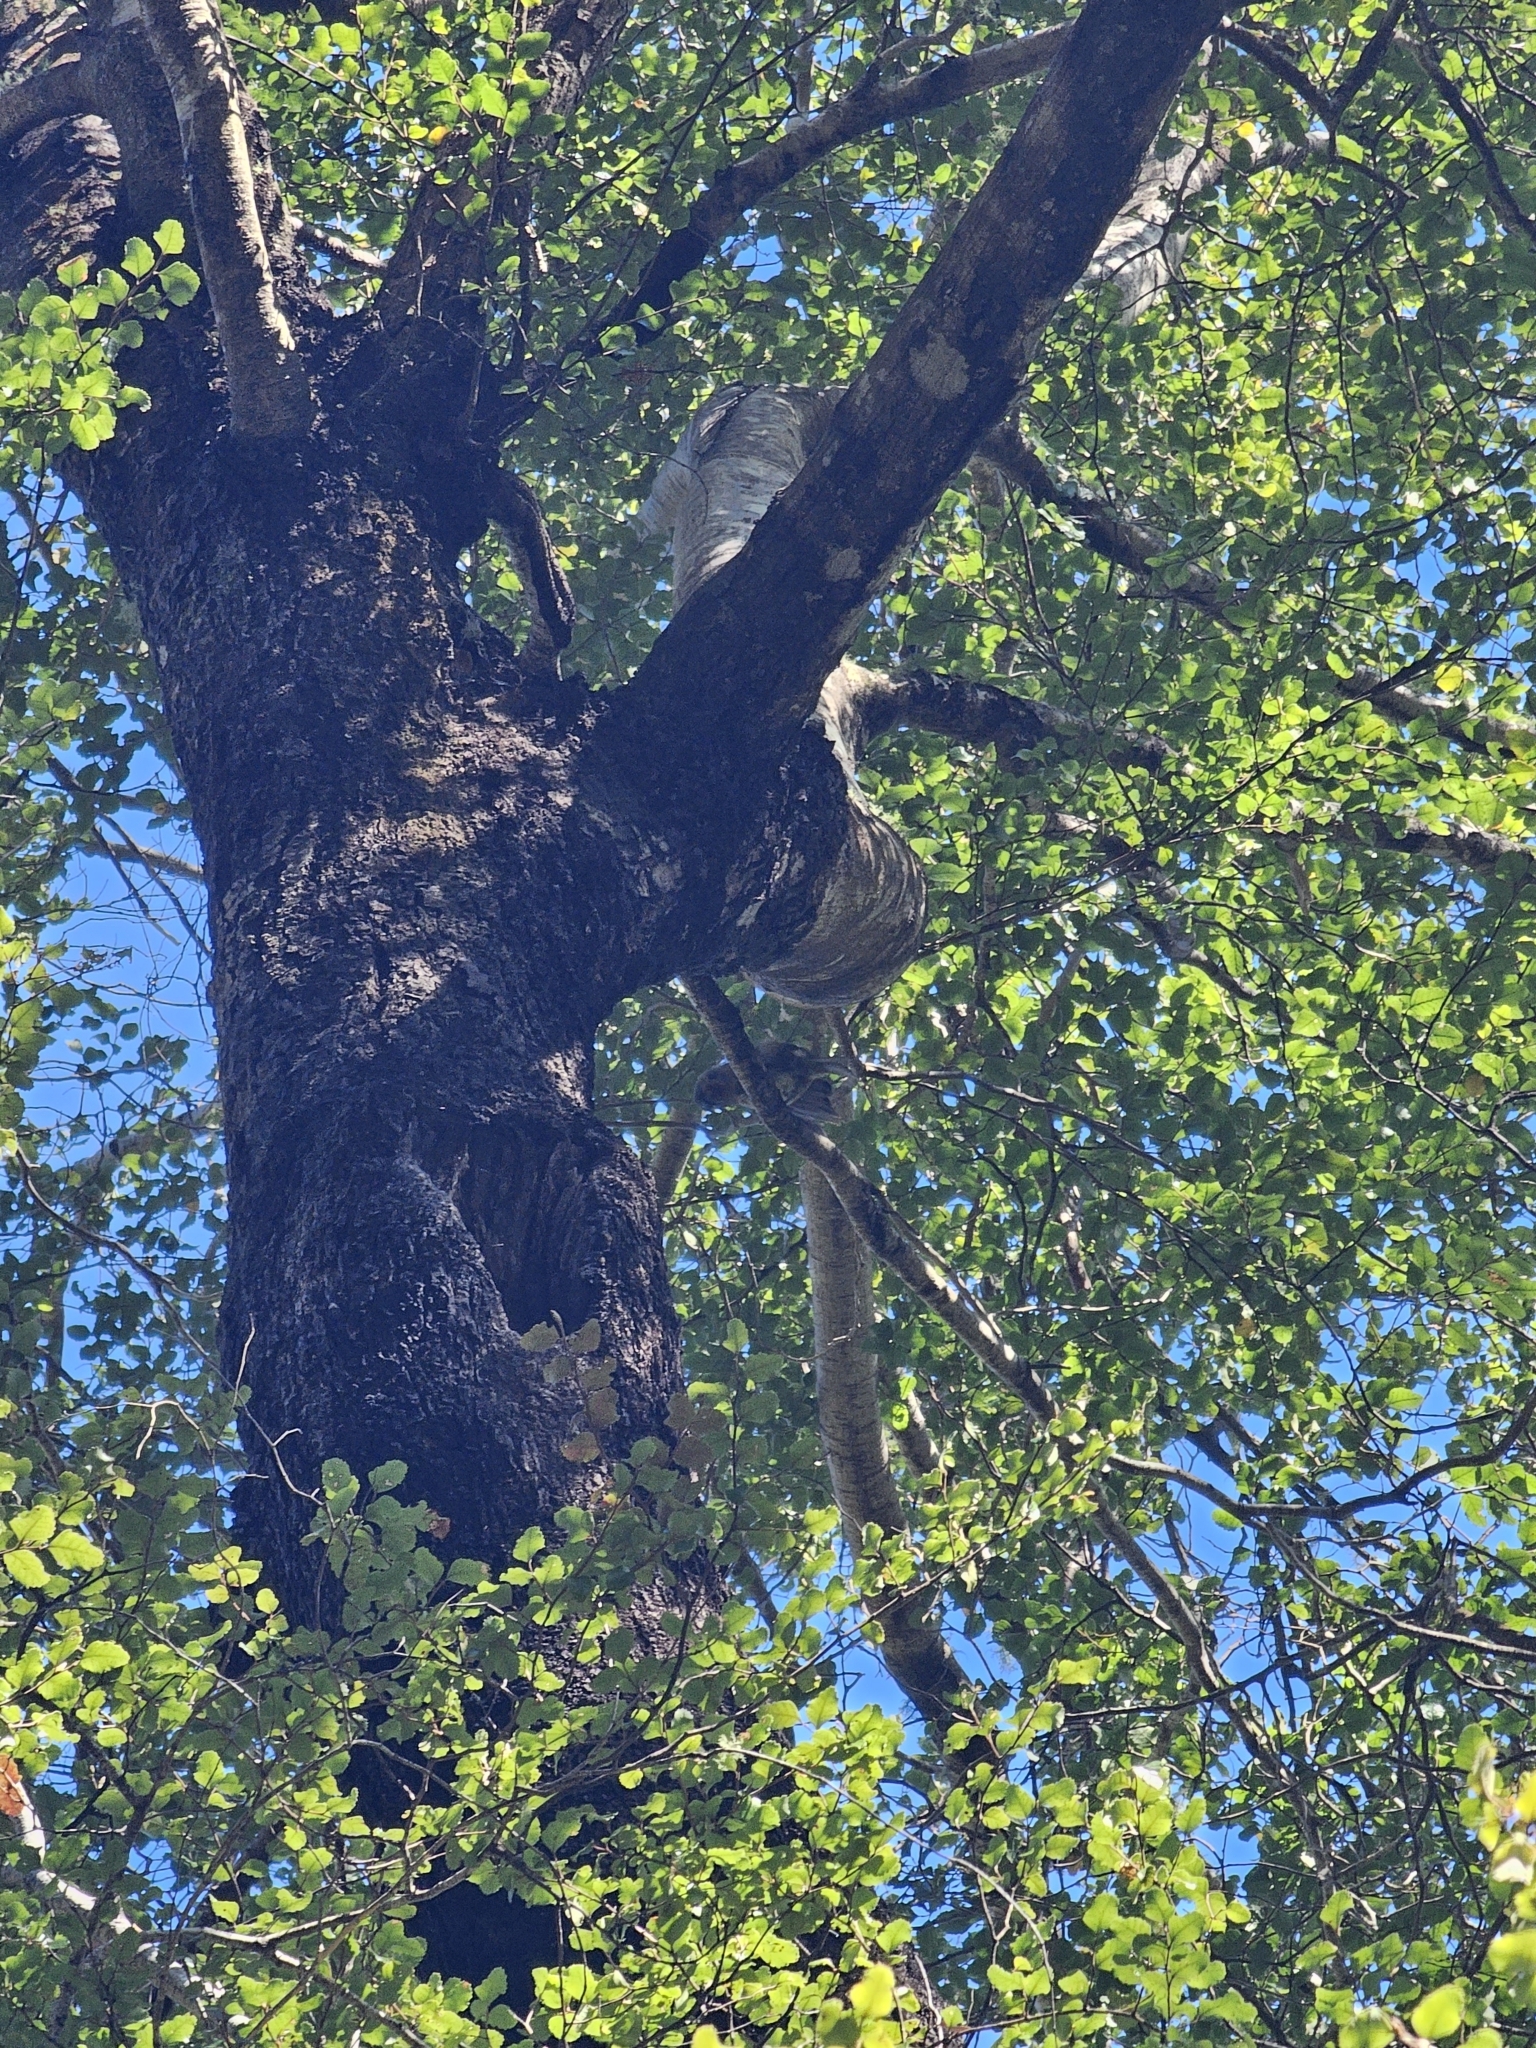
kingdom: Animalia
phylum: Chordata
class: Aves
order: Passeriformes
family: Meliphagidae
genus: Anthornis
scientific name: Anthornis melanura
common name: New zealand bellbird
